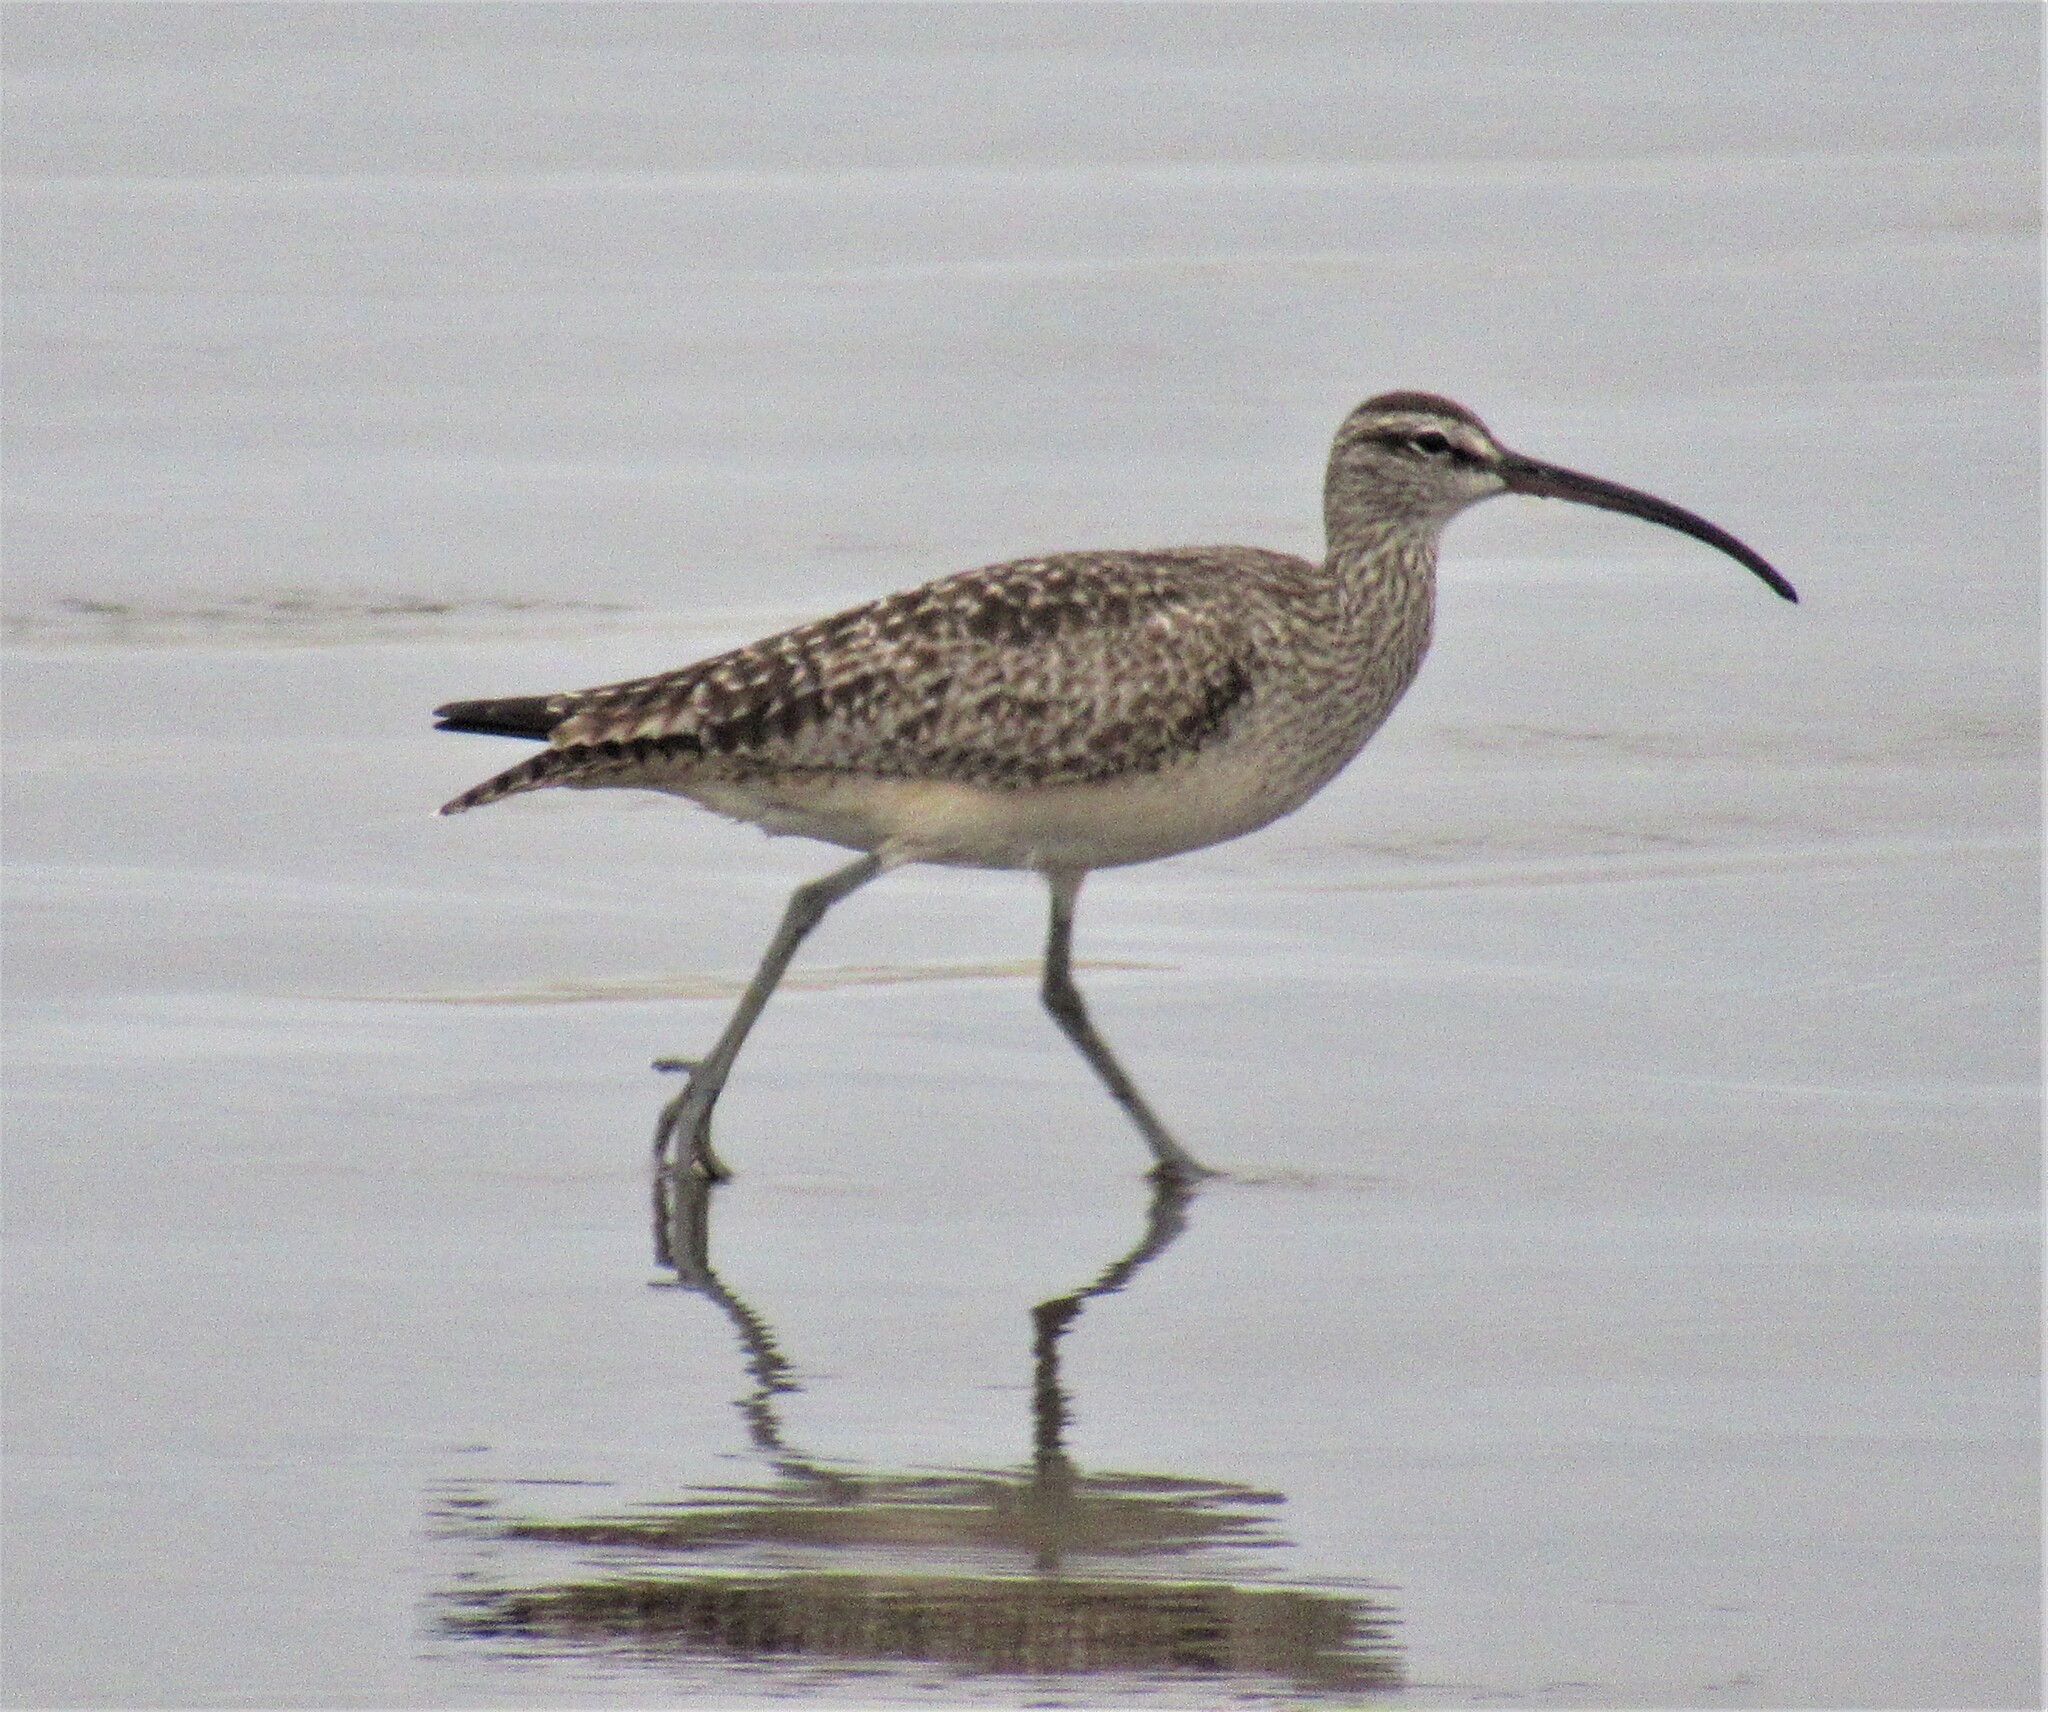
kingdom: Animalia
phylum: Chordata
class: Aves
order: Charadriiformes
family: Scolopacidae
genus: Numenius
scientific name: Numenius phaeopus
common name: Whimbrel
